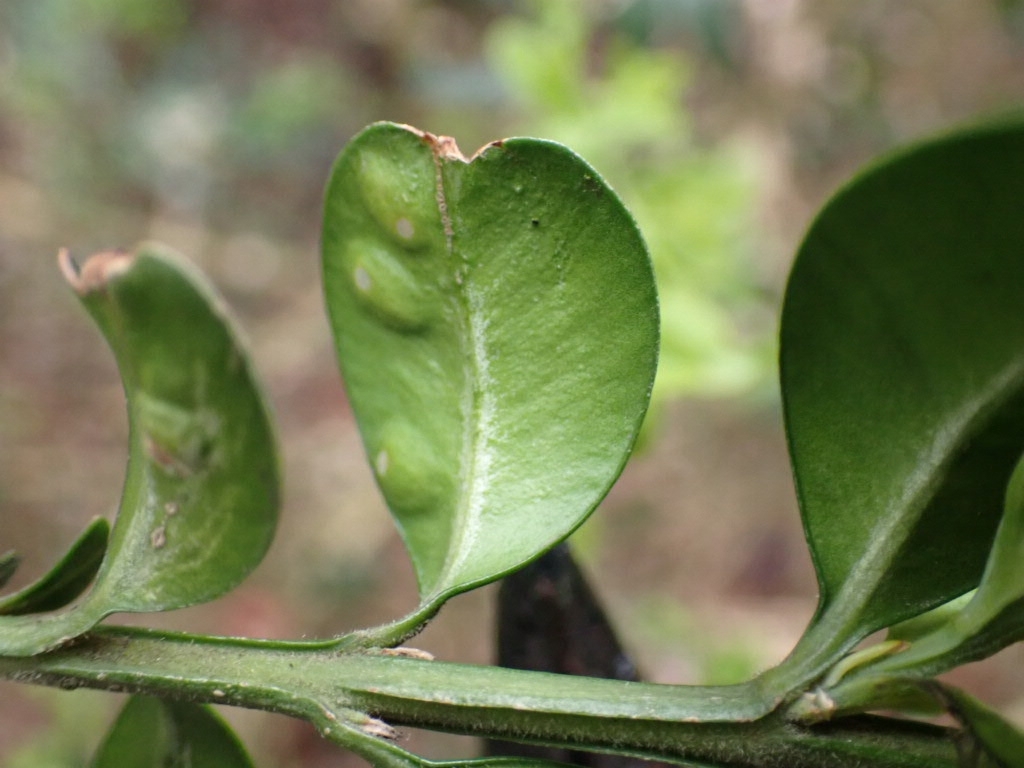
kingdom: Animalia
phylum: Arthropoda
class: Insecta
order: Diptera
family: Cecidomyiidae
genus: Monarthropalpus
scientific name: Monarthropalpus flavus
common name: Boxwood leafminer
